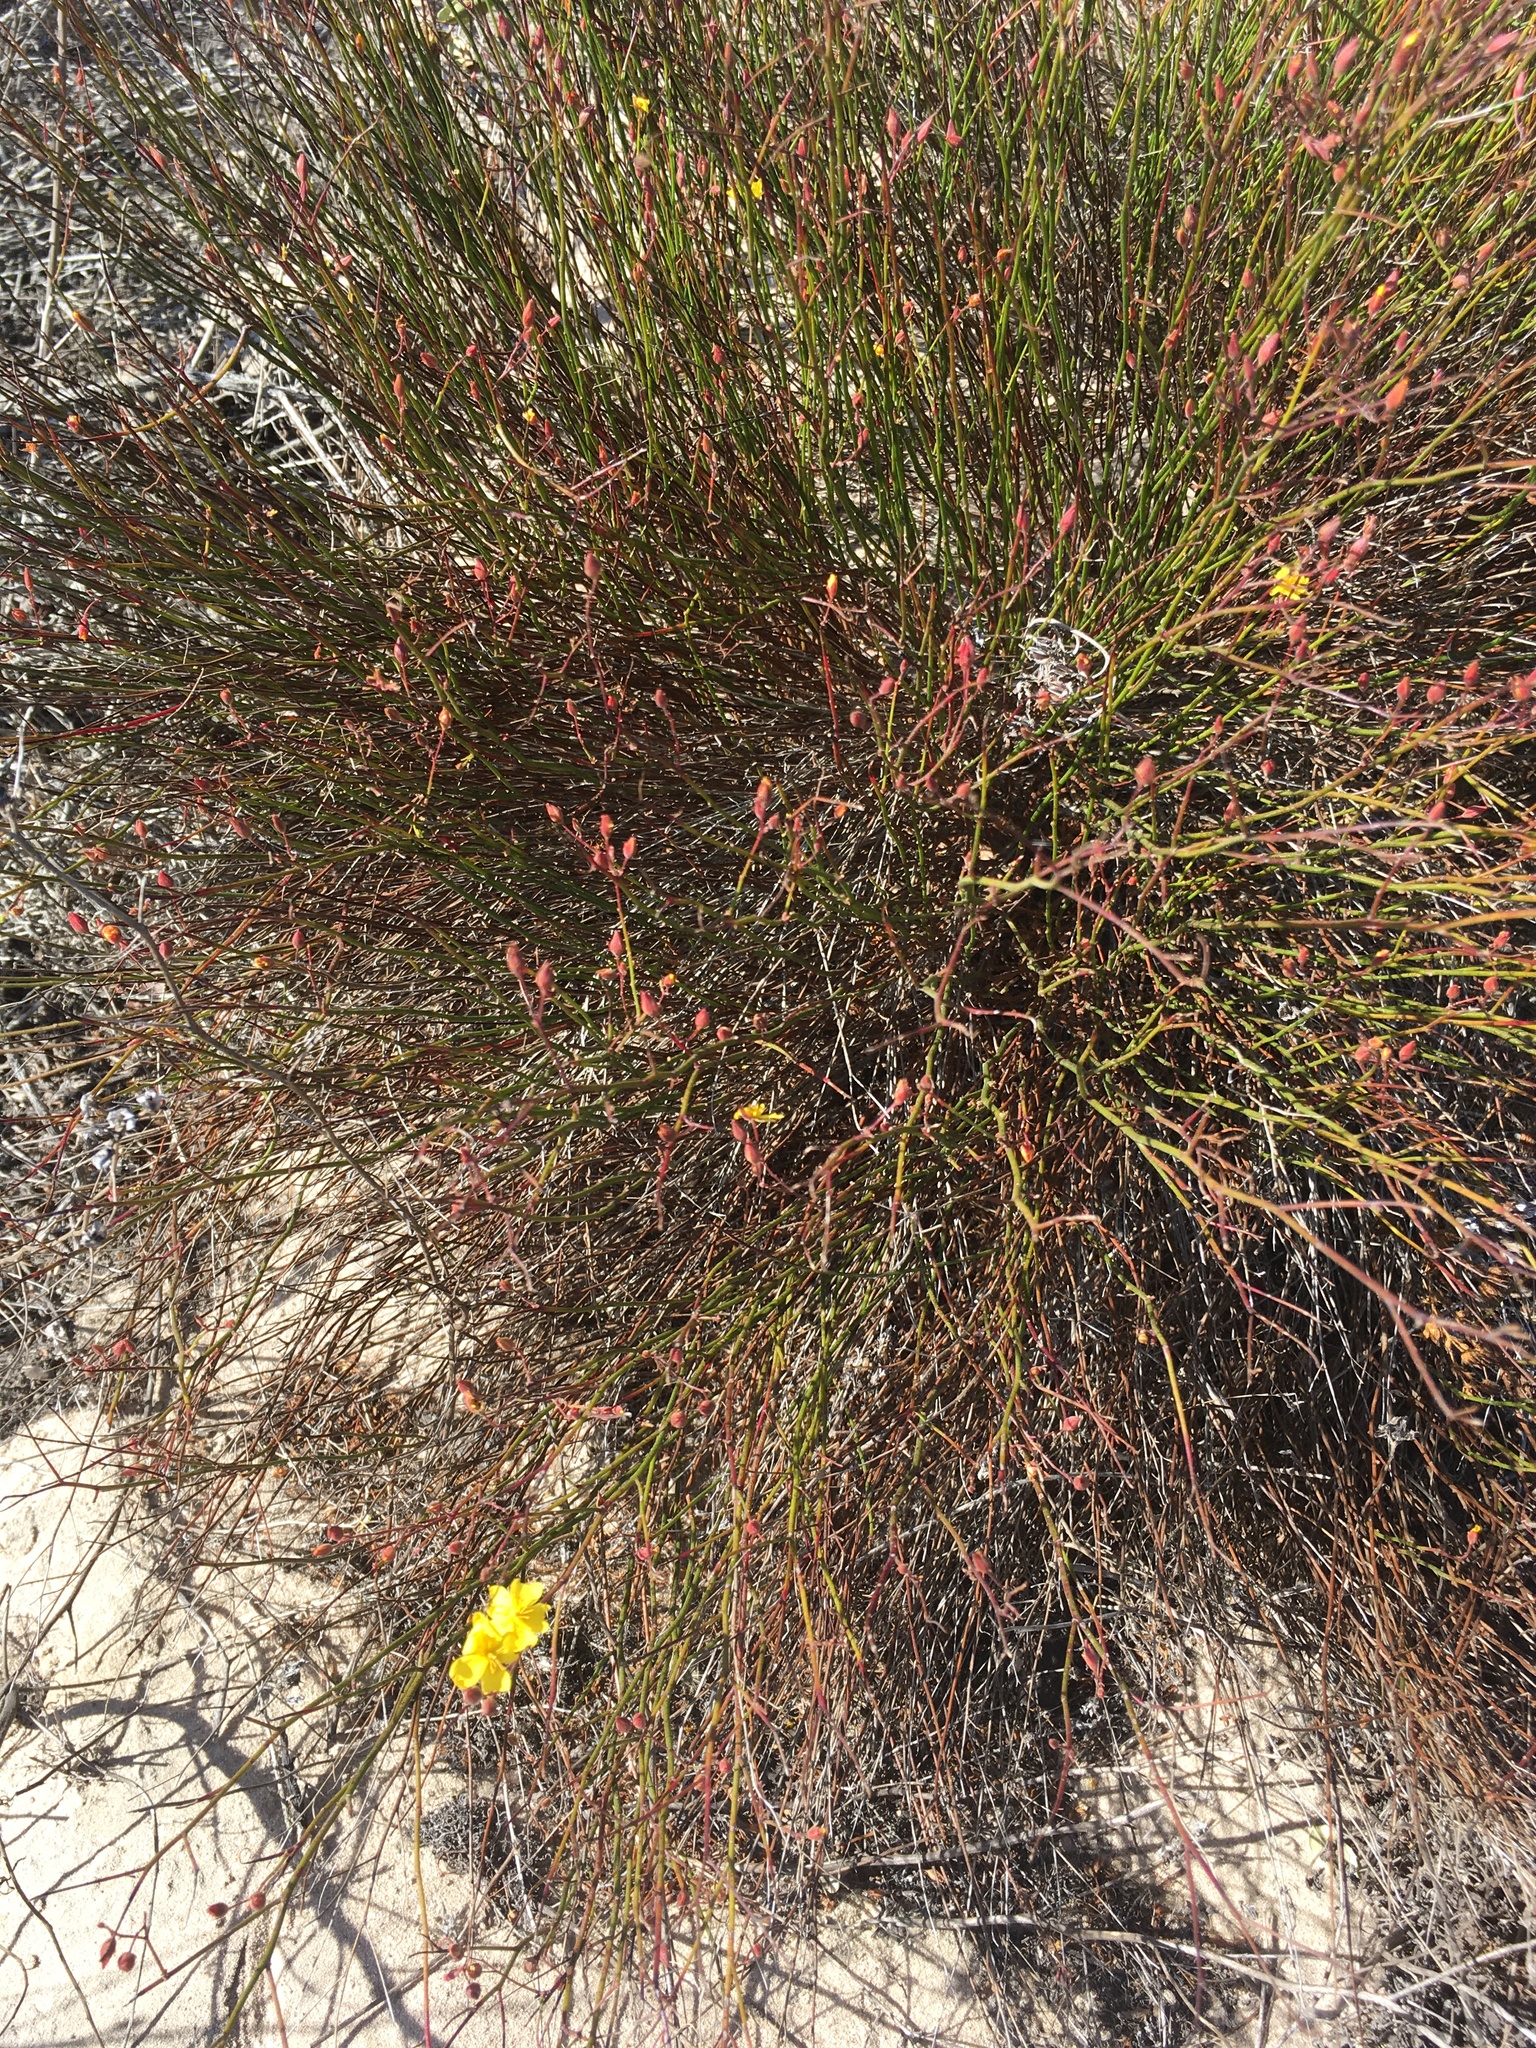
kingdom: Plantae
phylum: Tracheophyta
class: Magnoliopsida
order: Malvales
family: Cistaceae
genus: Crocanthemum
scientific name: Crocanthemum scoparium
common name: Broom-rose
